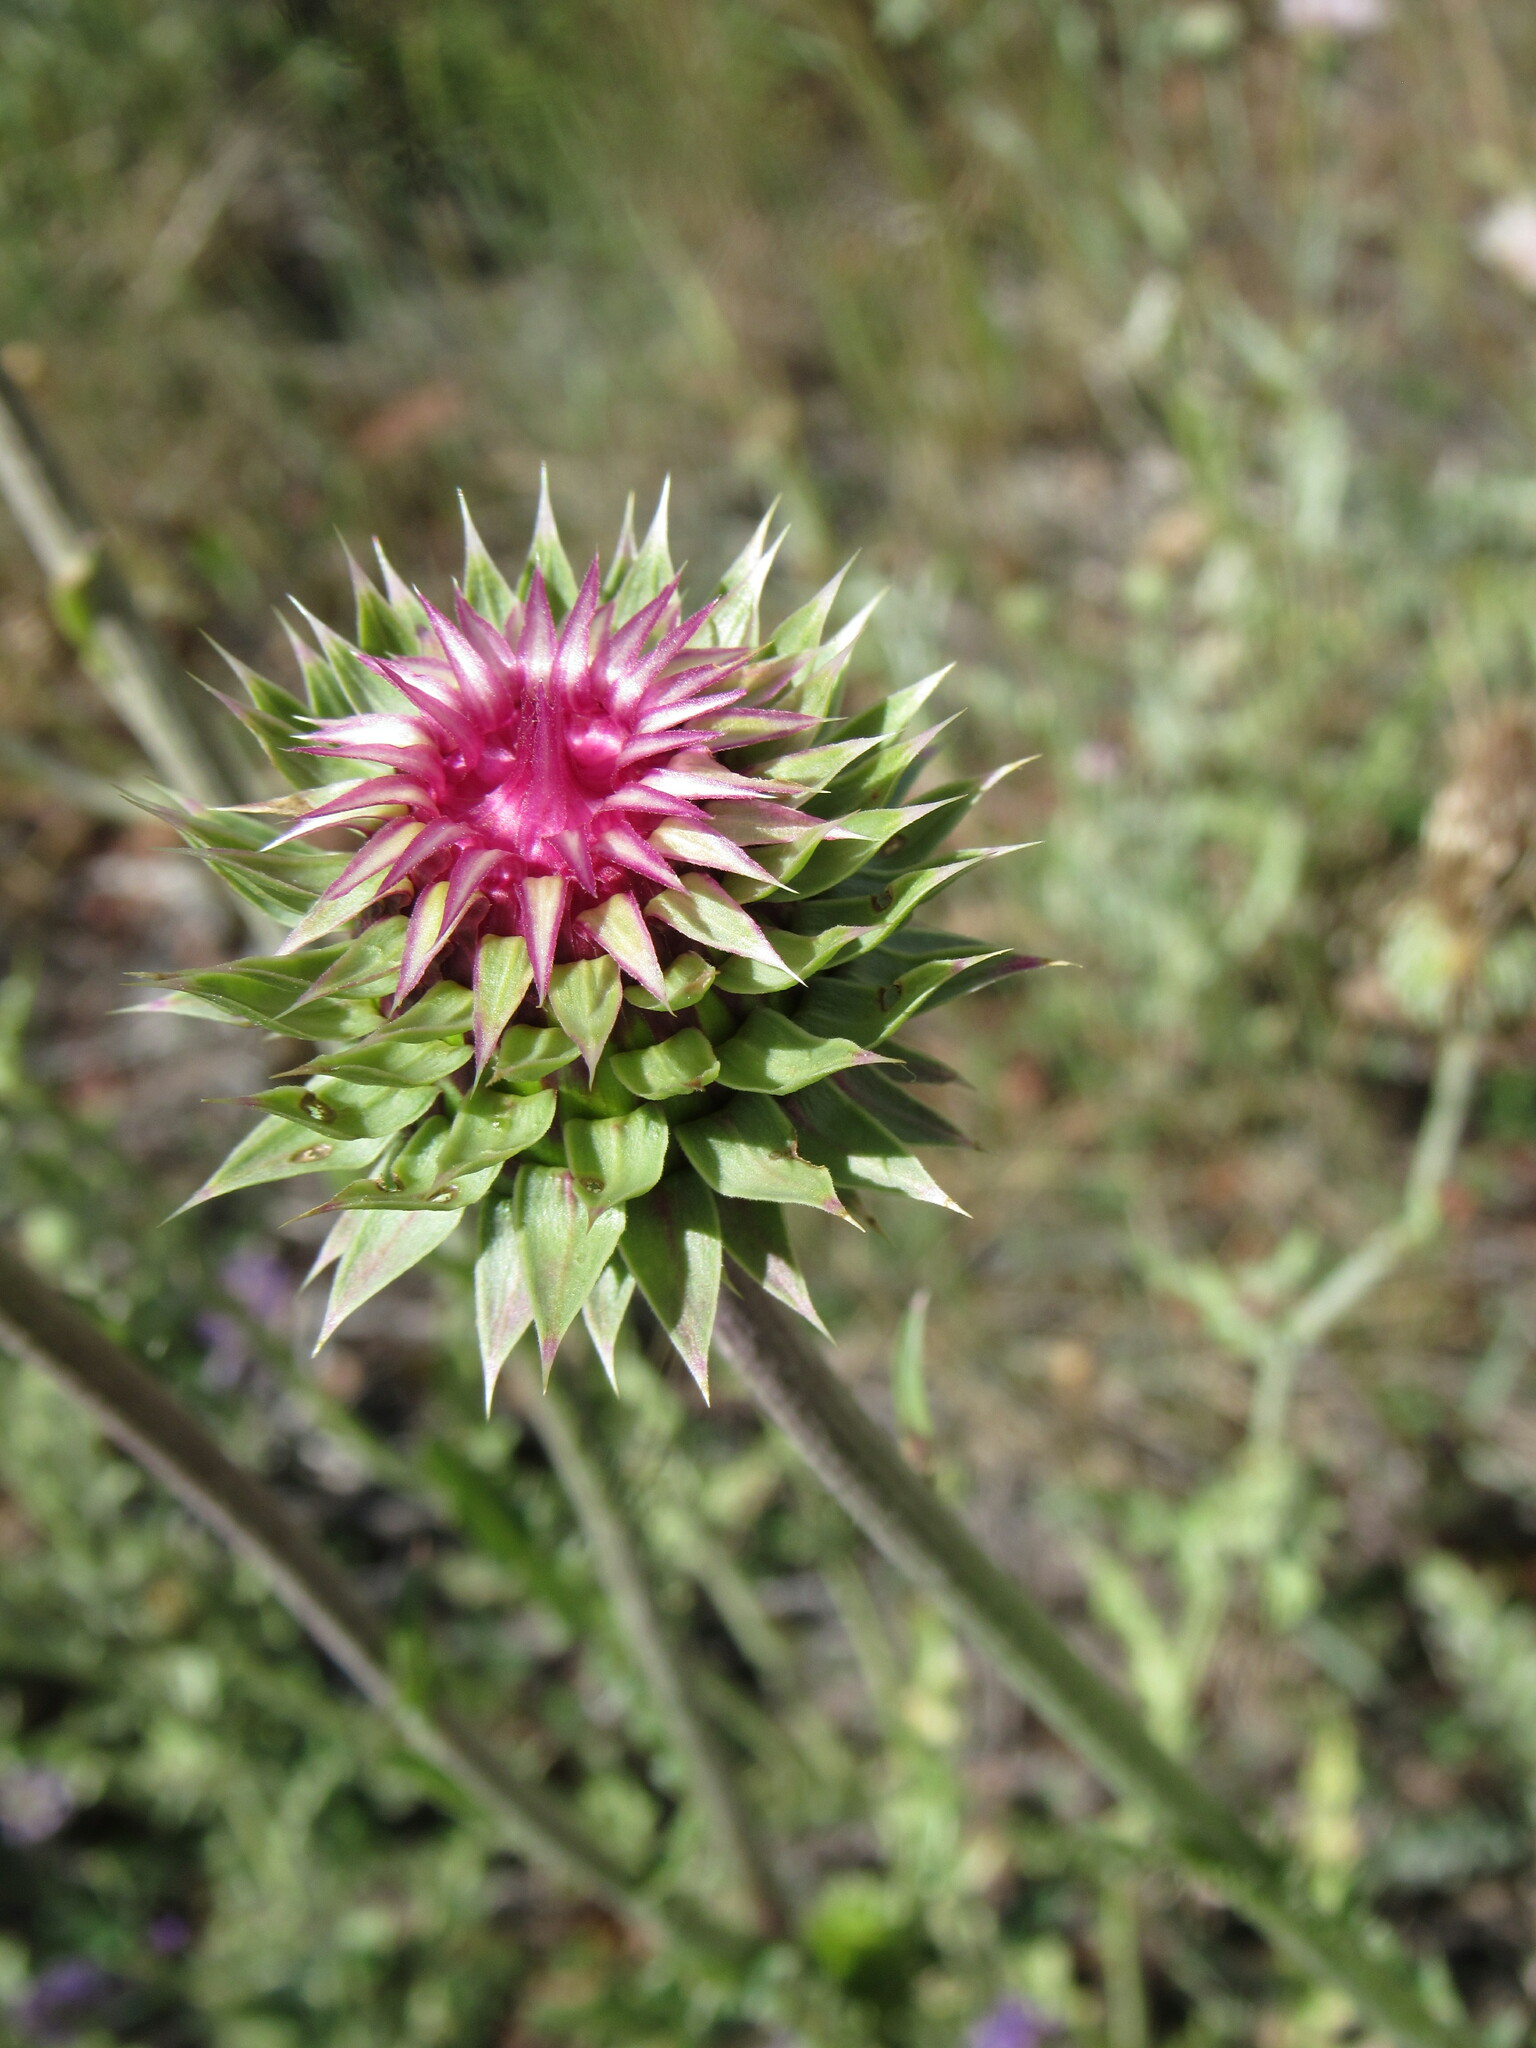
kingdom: Plantae
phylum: Tracheophyta
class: Magnoliopsida
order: Asterales
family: Asteraceae
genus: Carduus
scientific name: Carduus nutans
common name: Musk thistle
